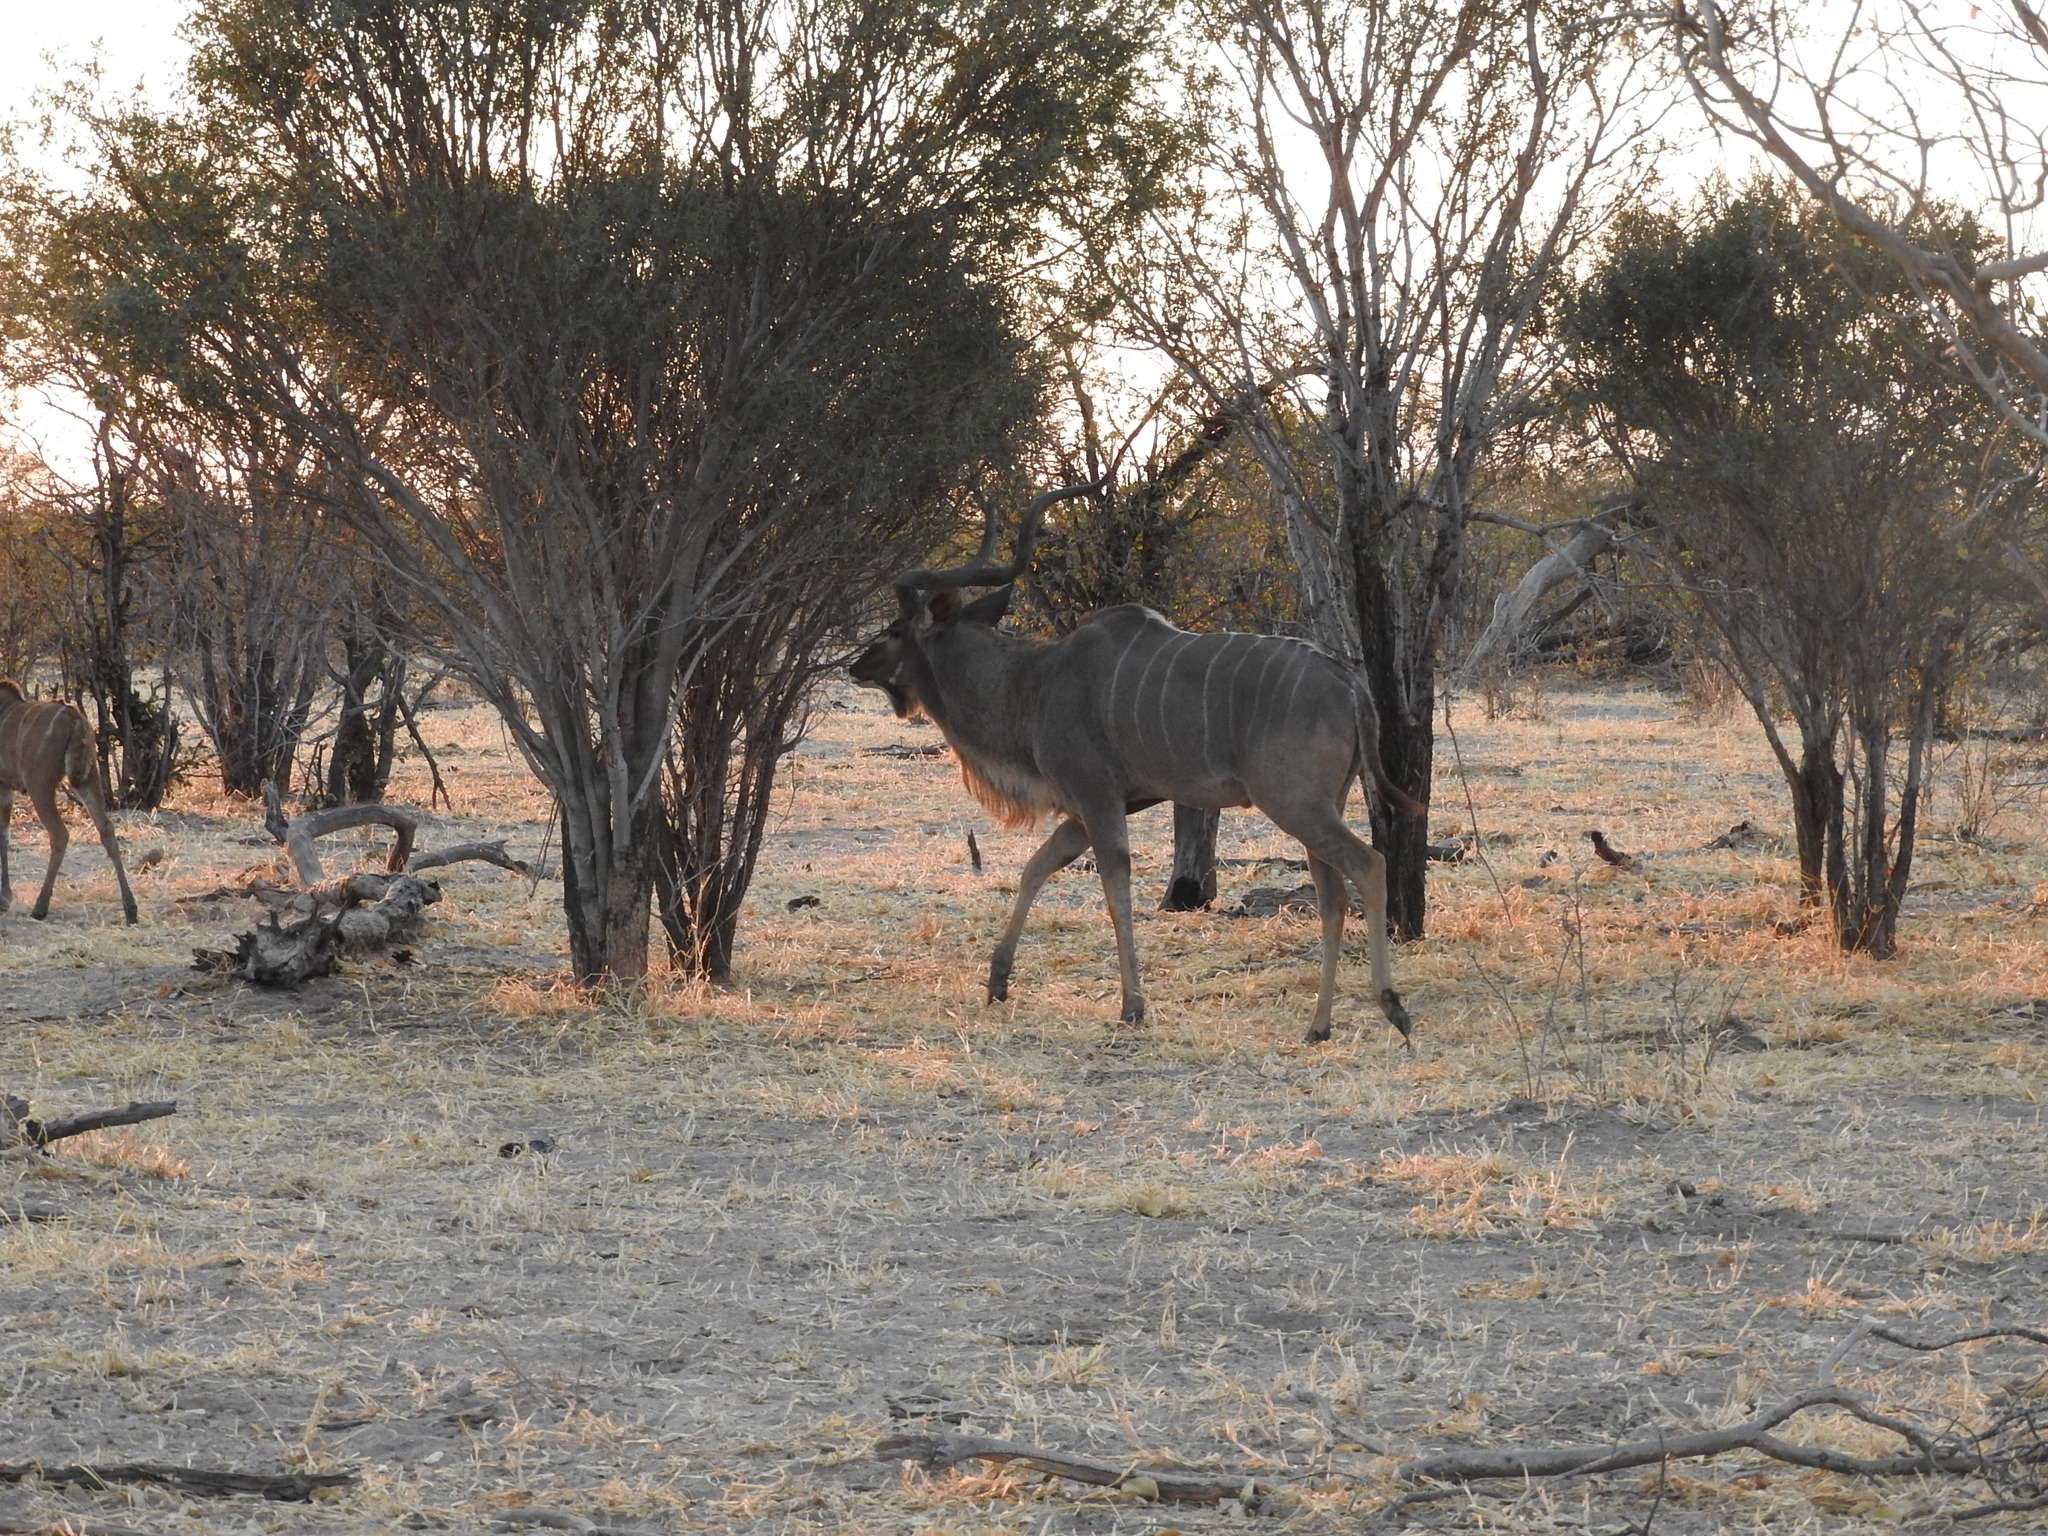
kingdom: Animalia
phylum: Chordata
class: Mammalia
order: Artiodactyla
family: Bovidae
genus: Tragelaphus
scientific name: Tragelaphus strepsiceros
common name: Greater kudu
